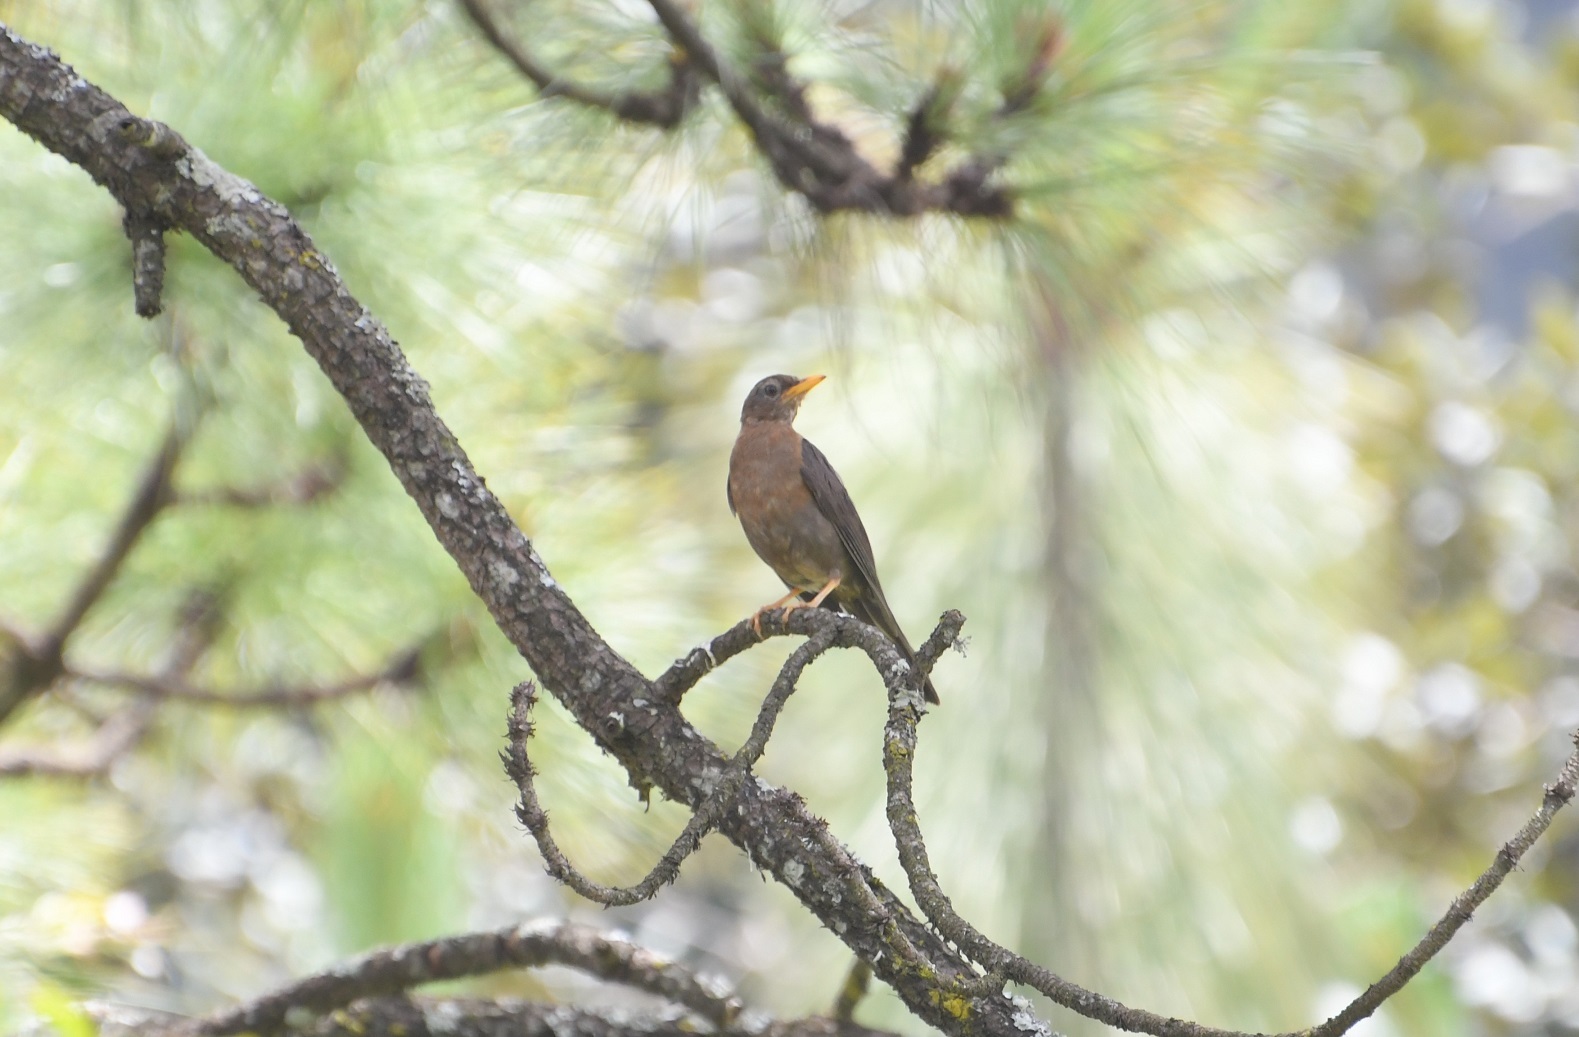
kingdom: Animalia
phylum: Chordata
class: Aves
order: Passeriformes
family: Turdidae
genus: Turdus
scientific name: Turdus rufitorques
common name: Rufous-collared thrush
